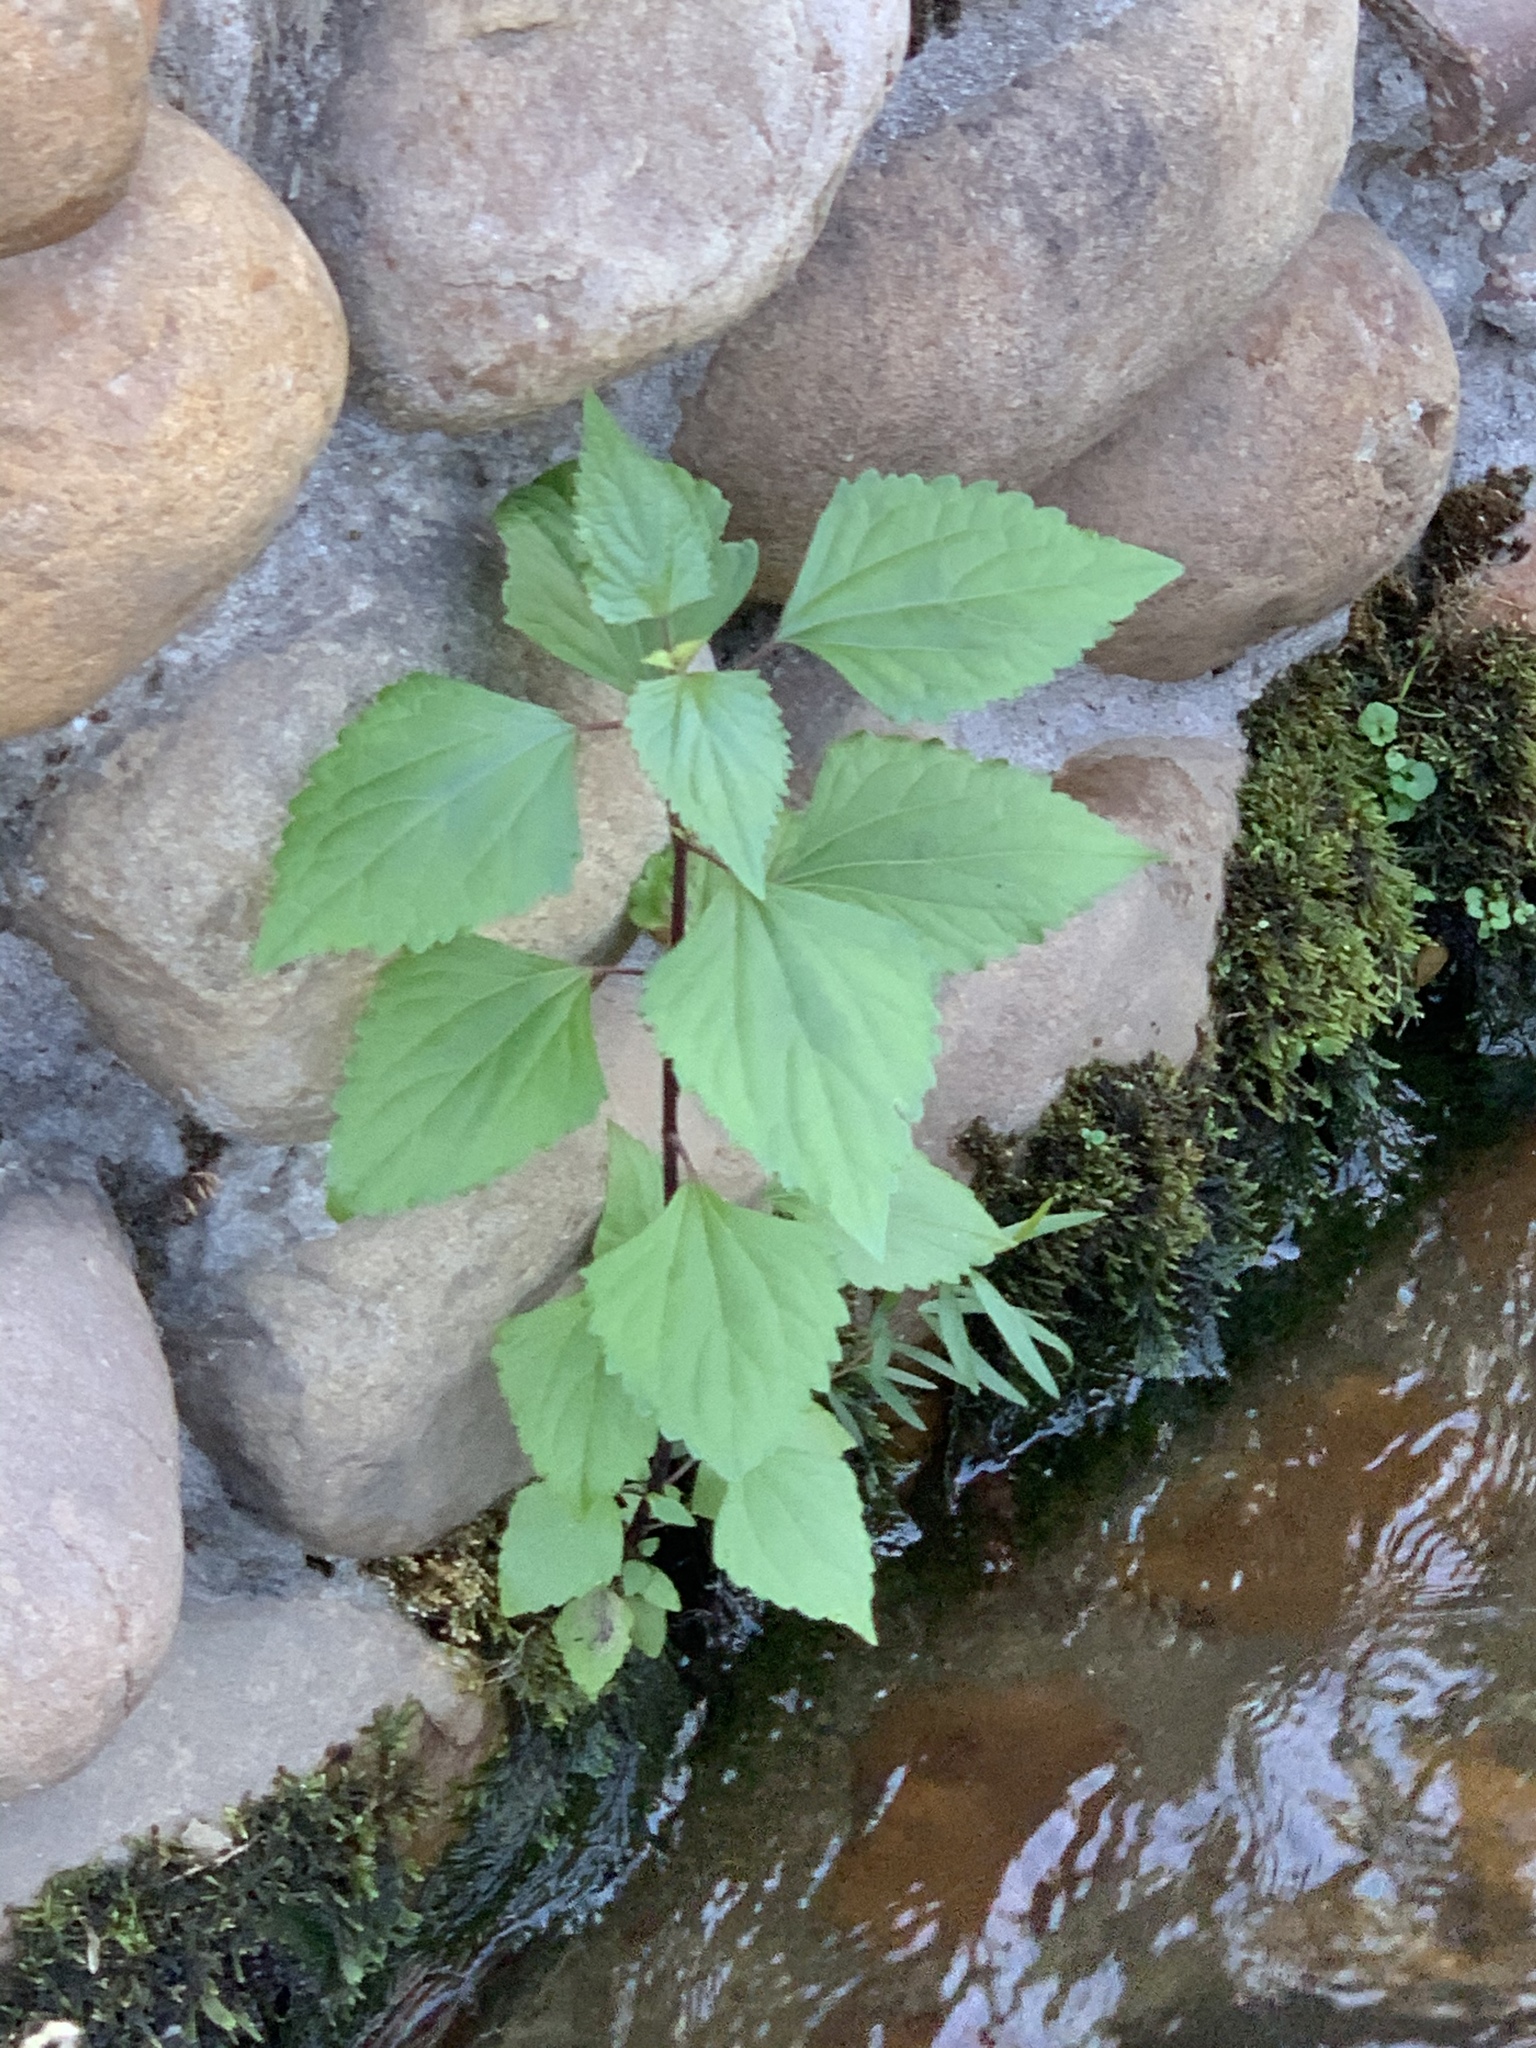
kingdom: Plantae
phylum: Tracheophyta
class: Magnoliopsida
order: Asterales
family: Asteraceae
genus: Ageratina
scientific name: Ageratina adenophora
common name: Sticky snakeroot
